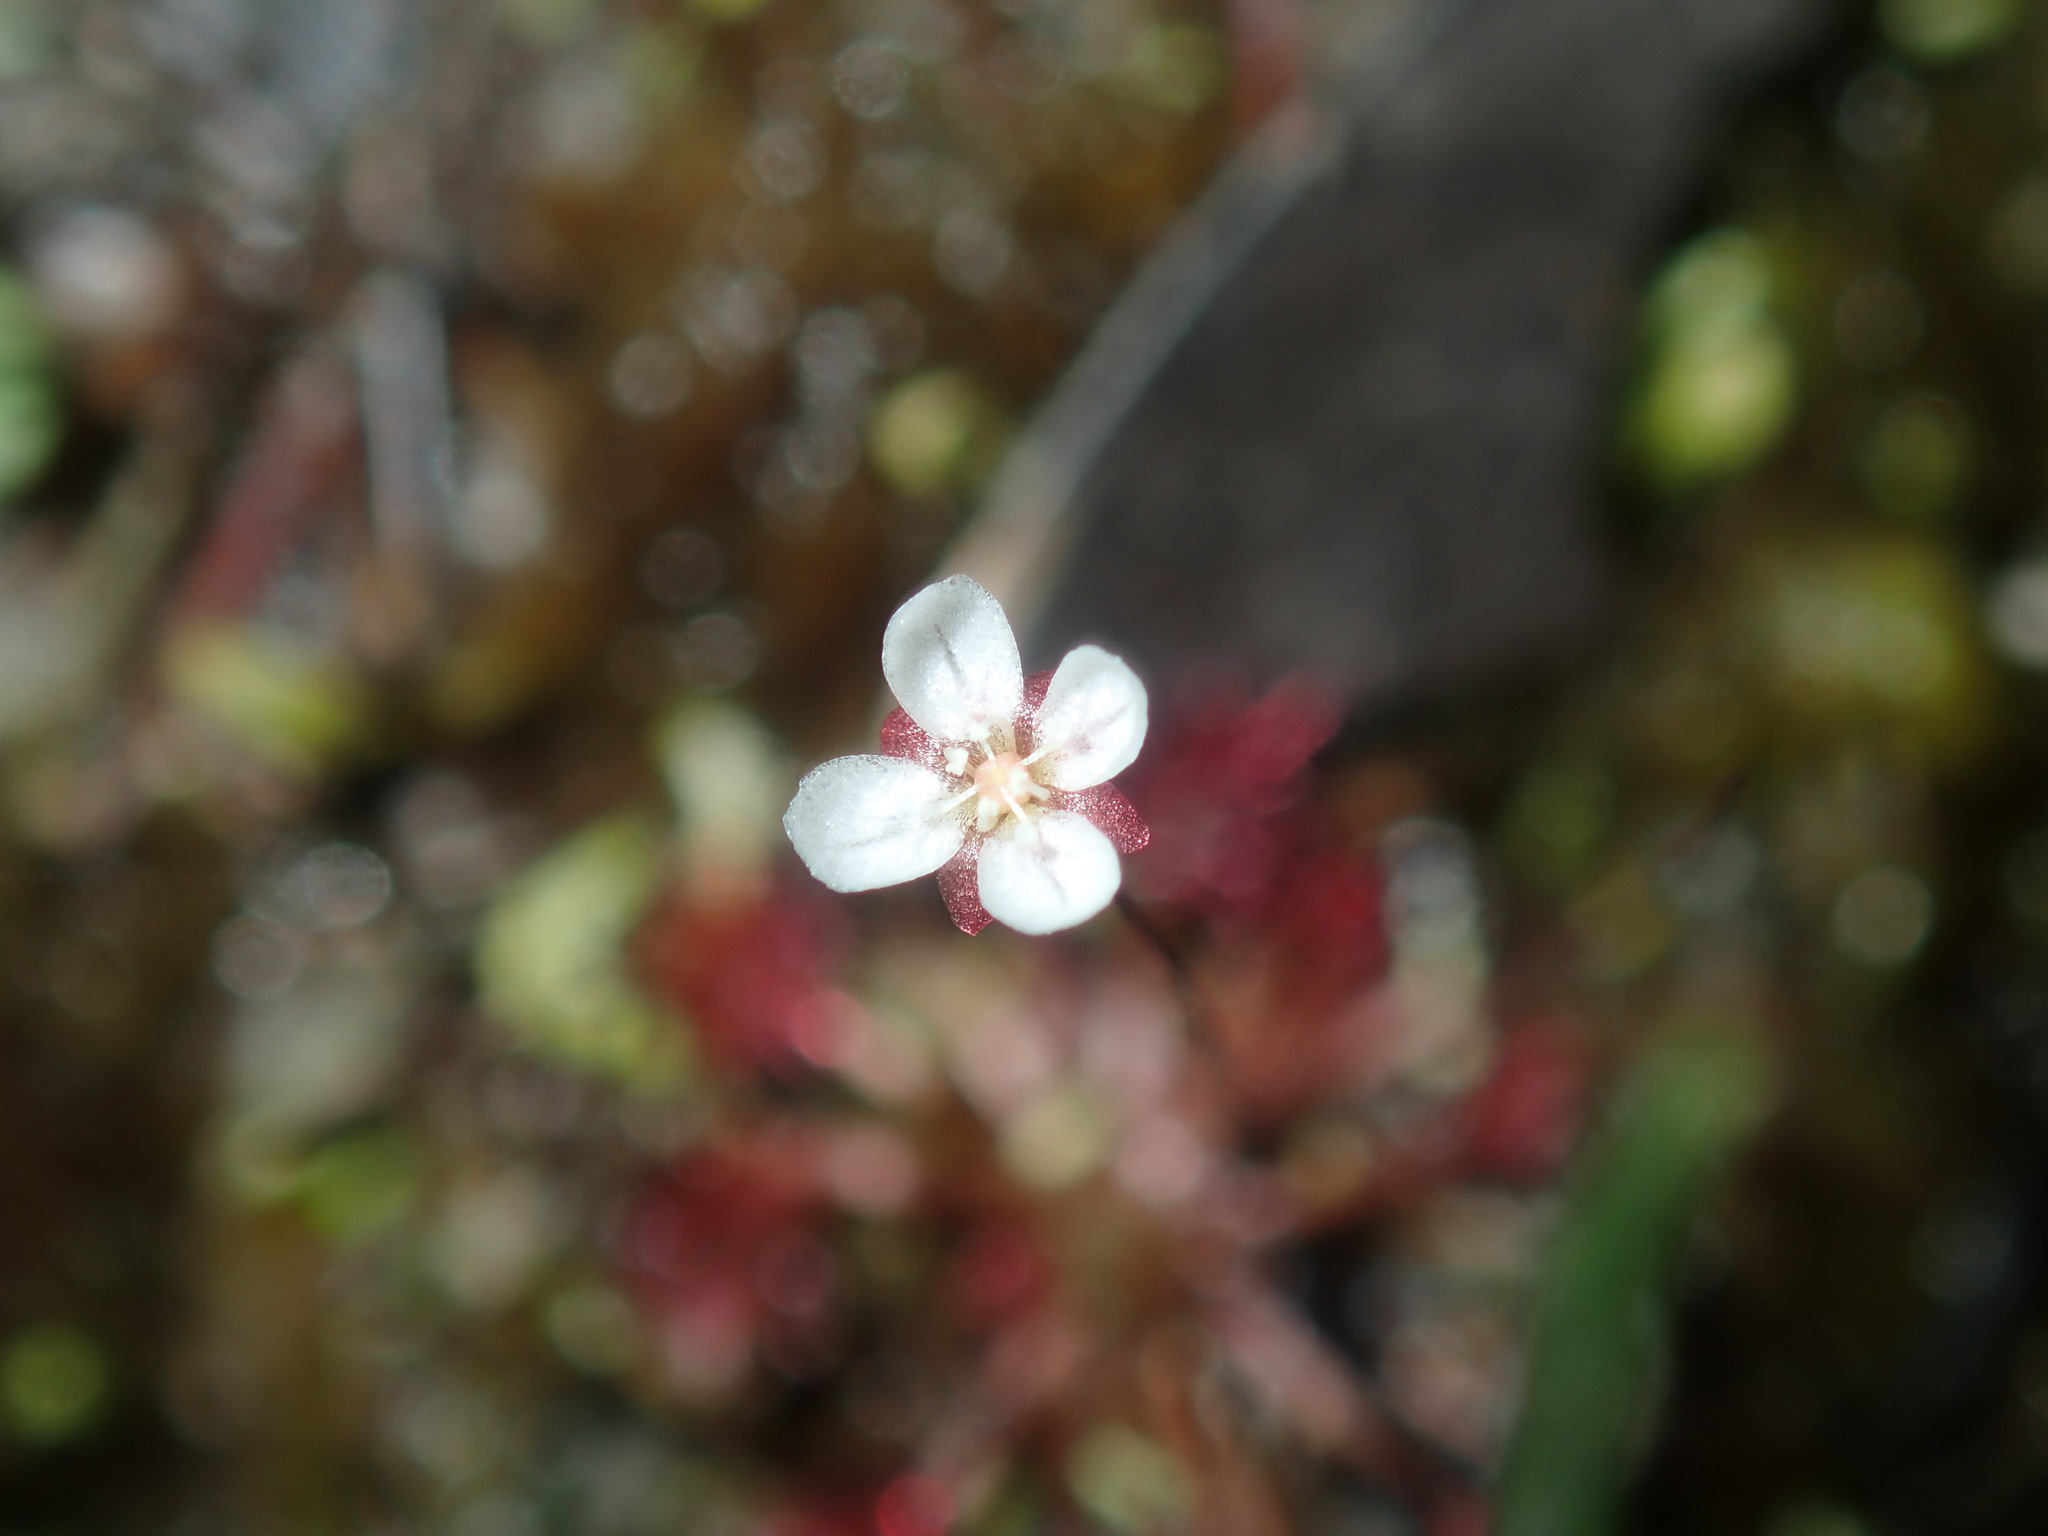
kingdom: Plantae
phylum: Tracheophyta
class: Magnoliopsida
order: Caryophyllales
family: Droseraceae
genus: Drosera
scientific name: Drosera pygmaea
